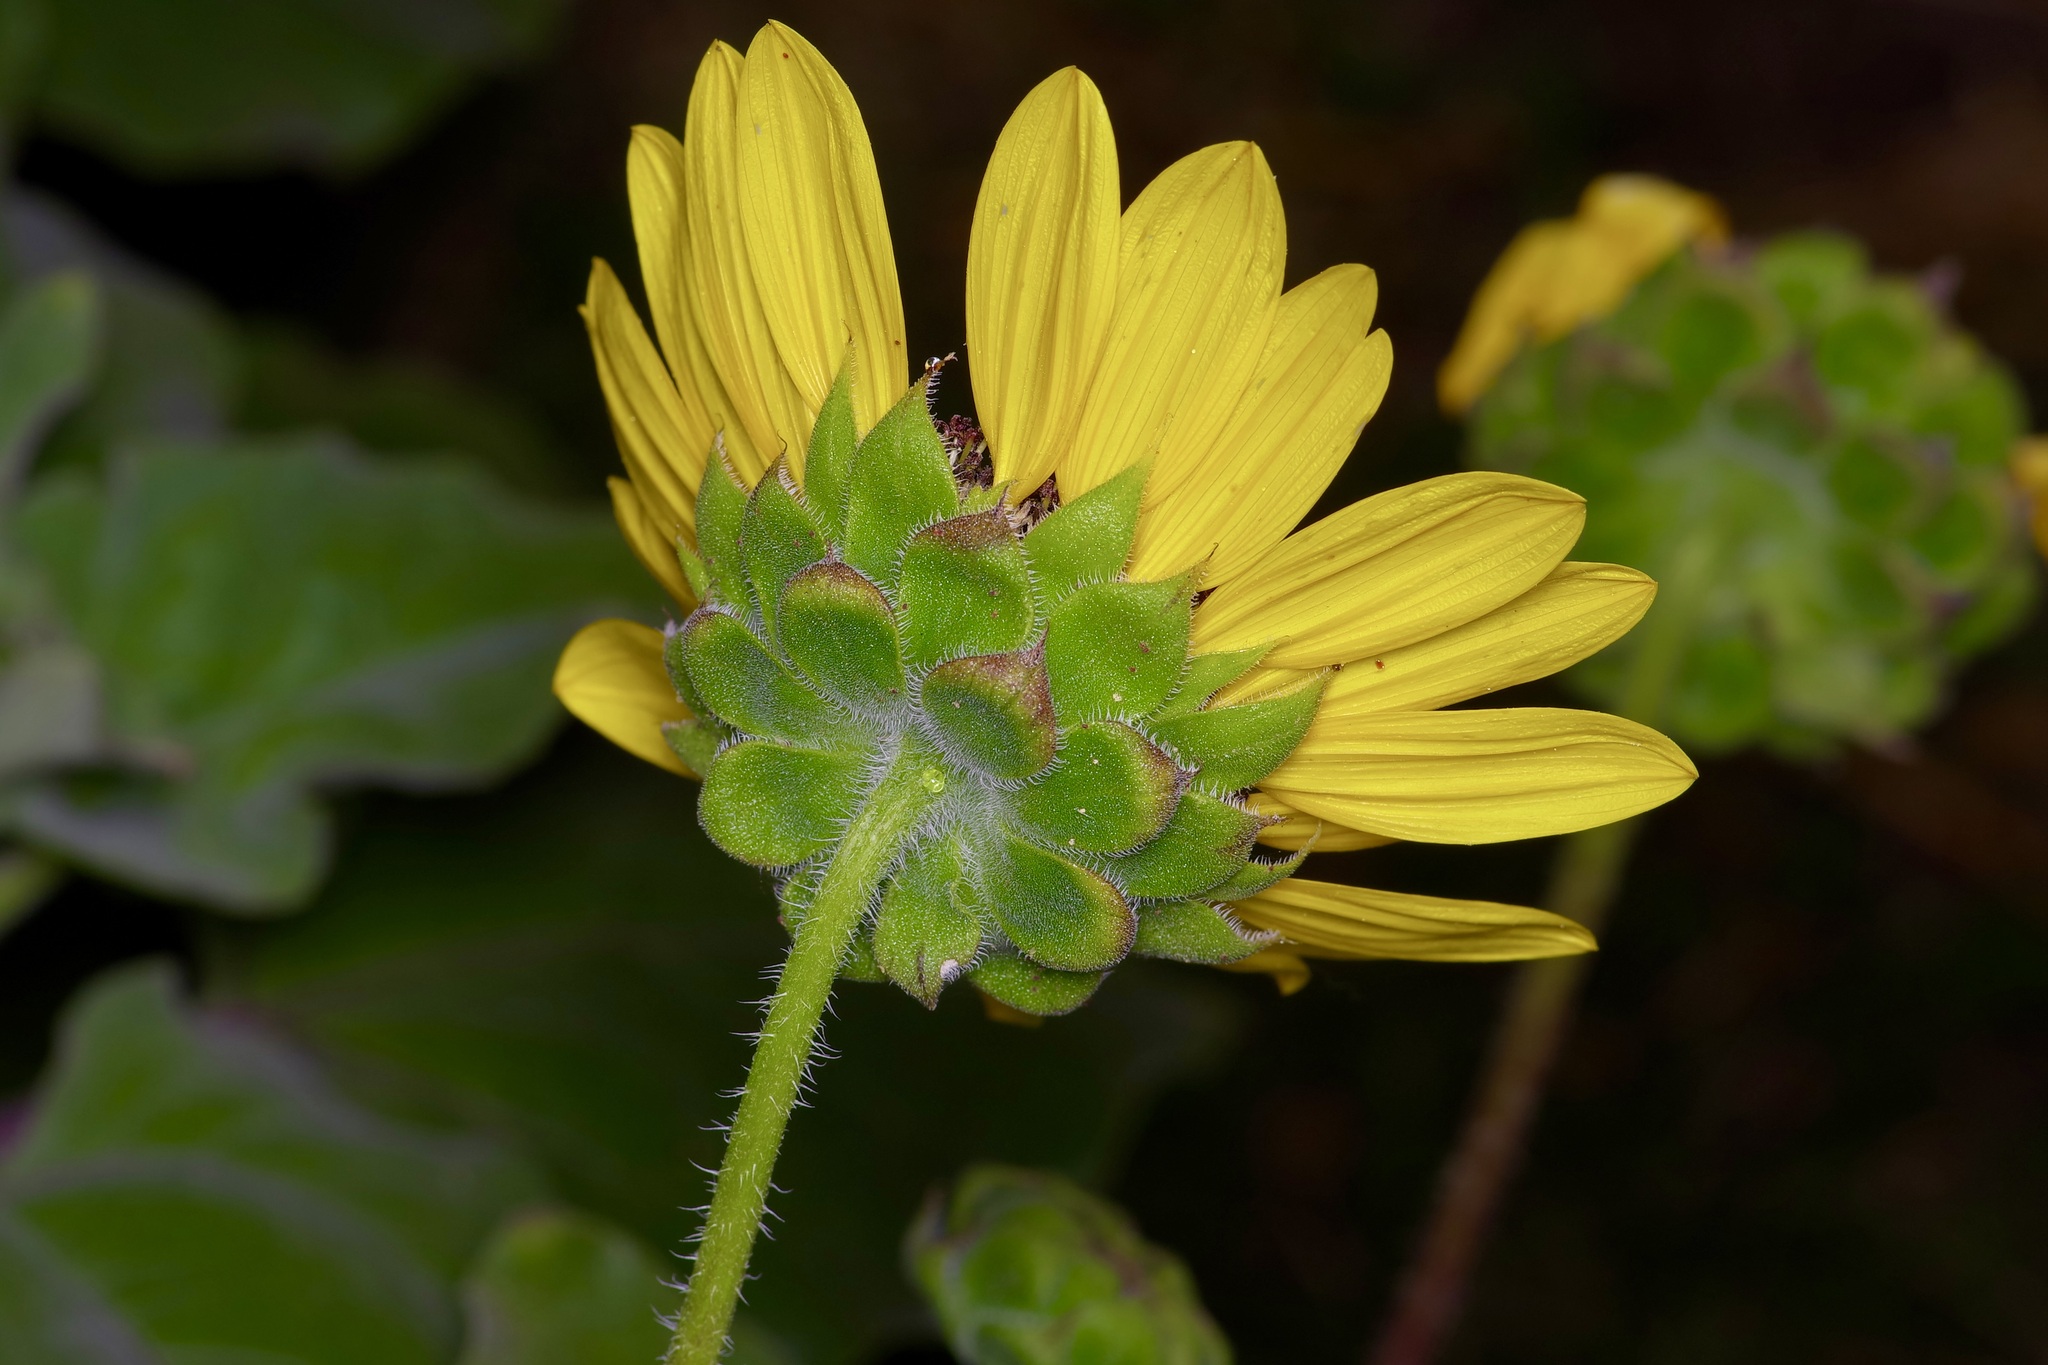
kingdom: Plantae
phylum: Tracheophyta
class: Magnoliopsida
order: Asterales
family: Asteraceae
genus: Helianthus
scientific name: Helianthus annuus
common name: Sunflower
